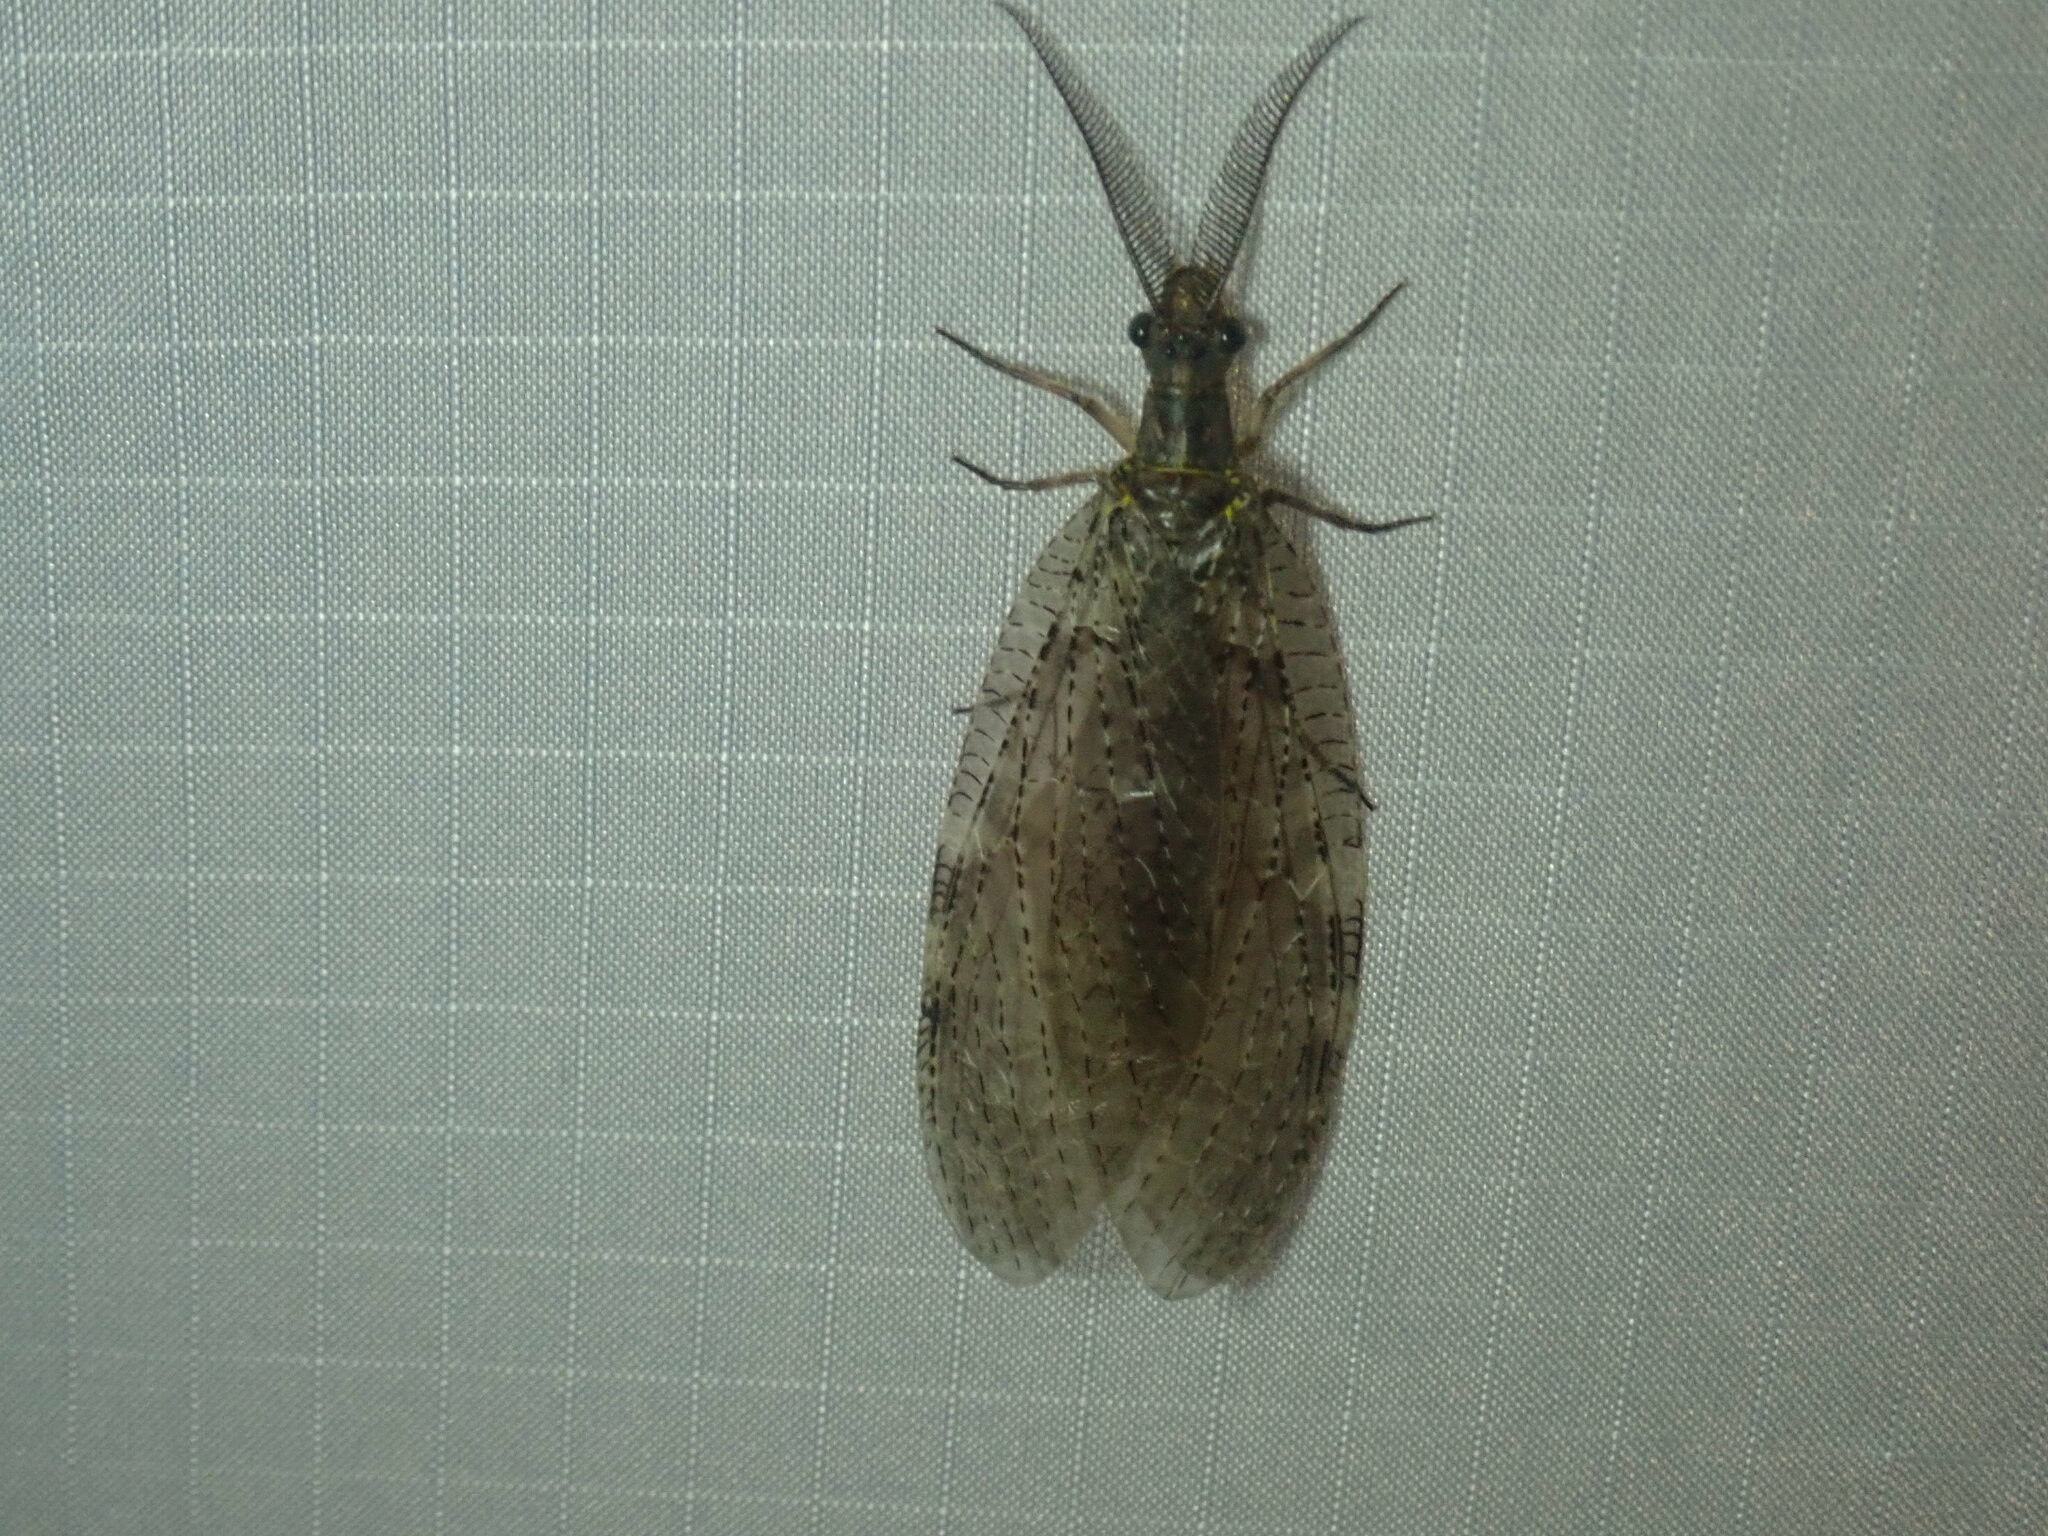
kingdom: Animalia
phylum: Arthropoda
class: Insecta
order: Megaloptera
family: Corydalidae
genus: Chauliodes
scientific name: Chauliodes pectinicornis
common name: Summer fishfly
